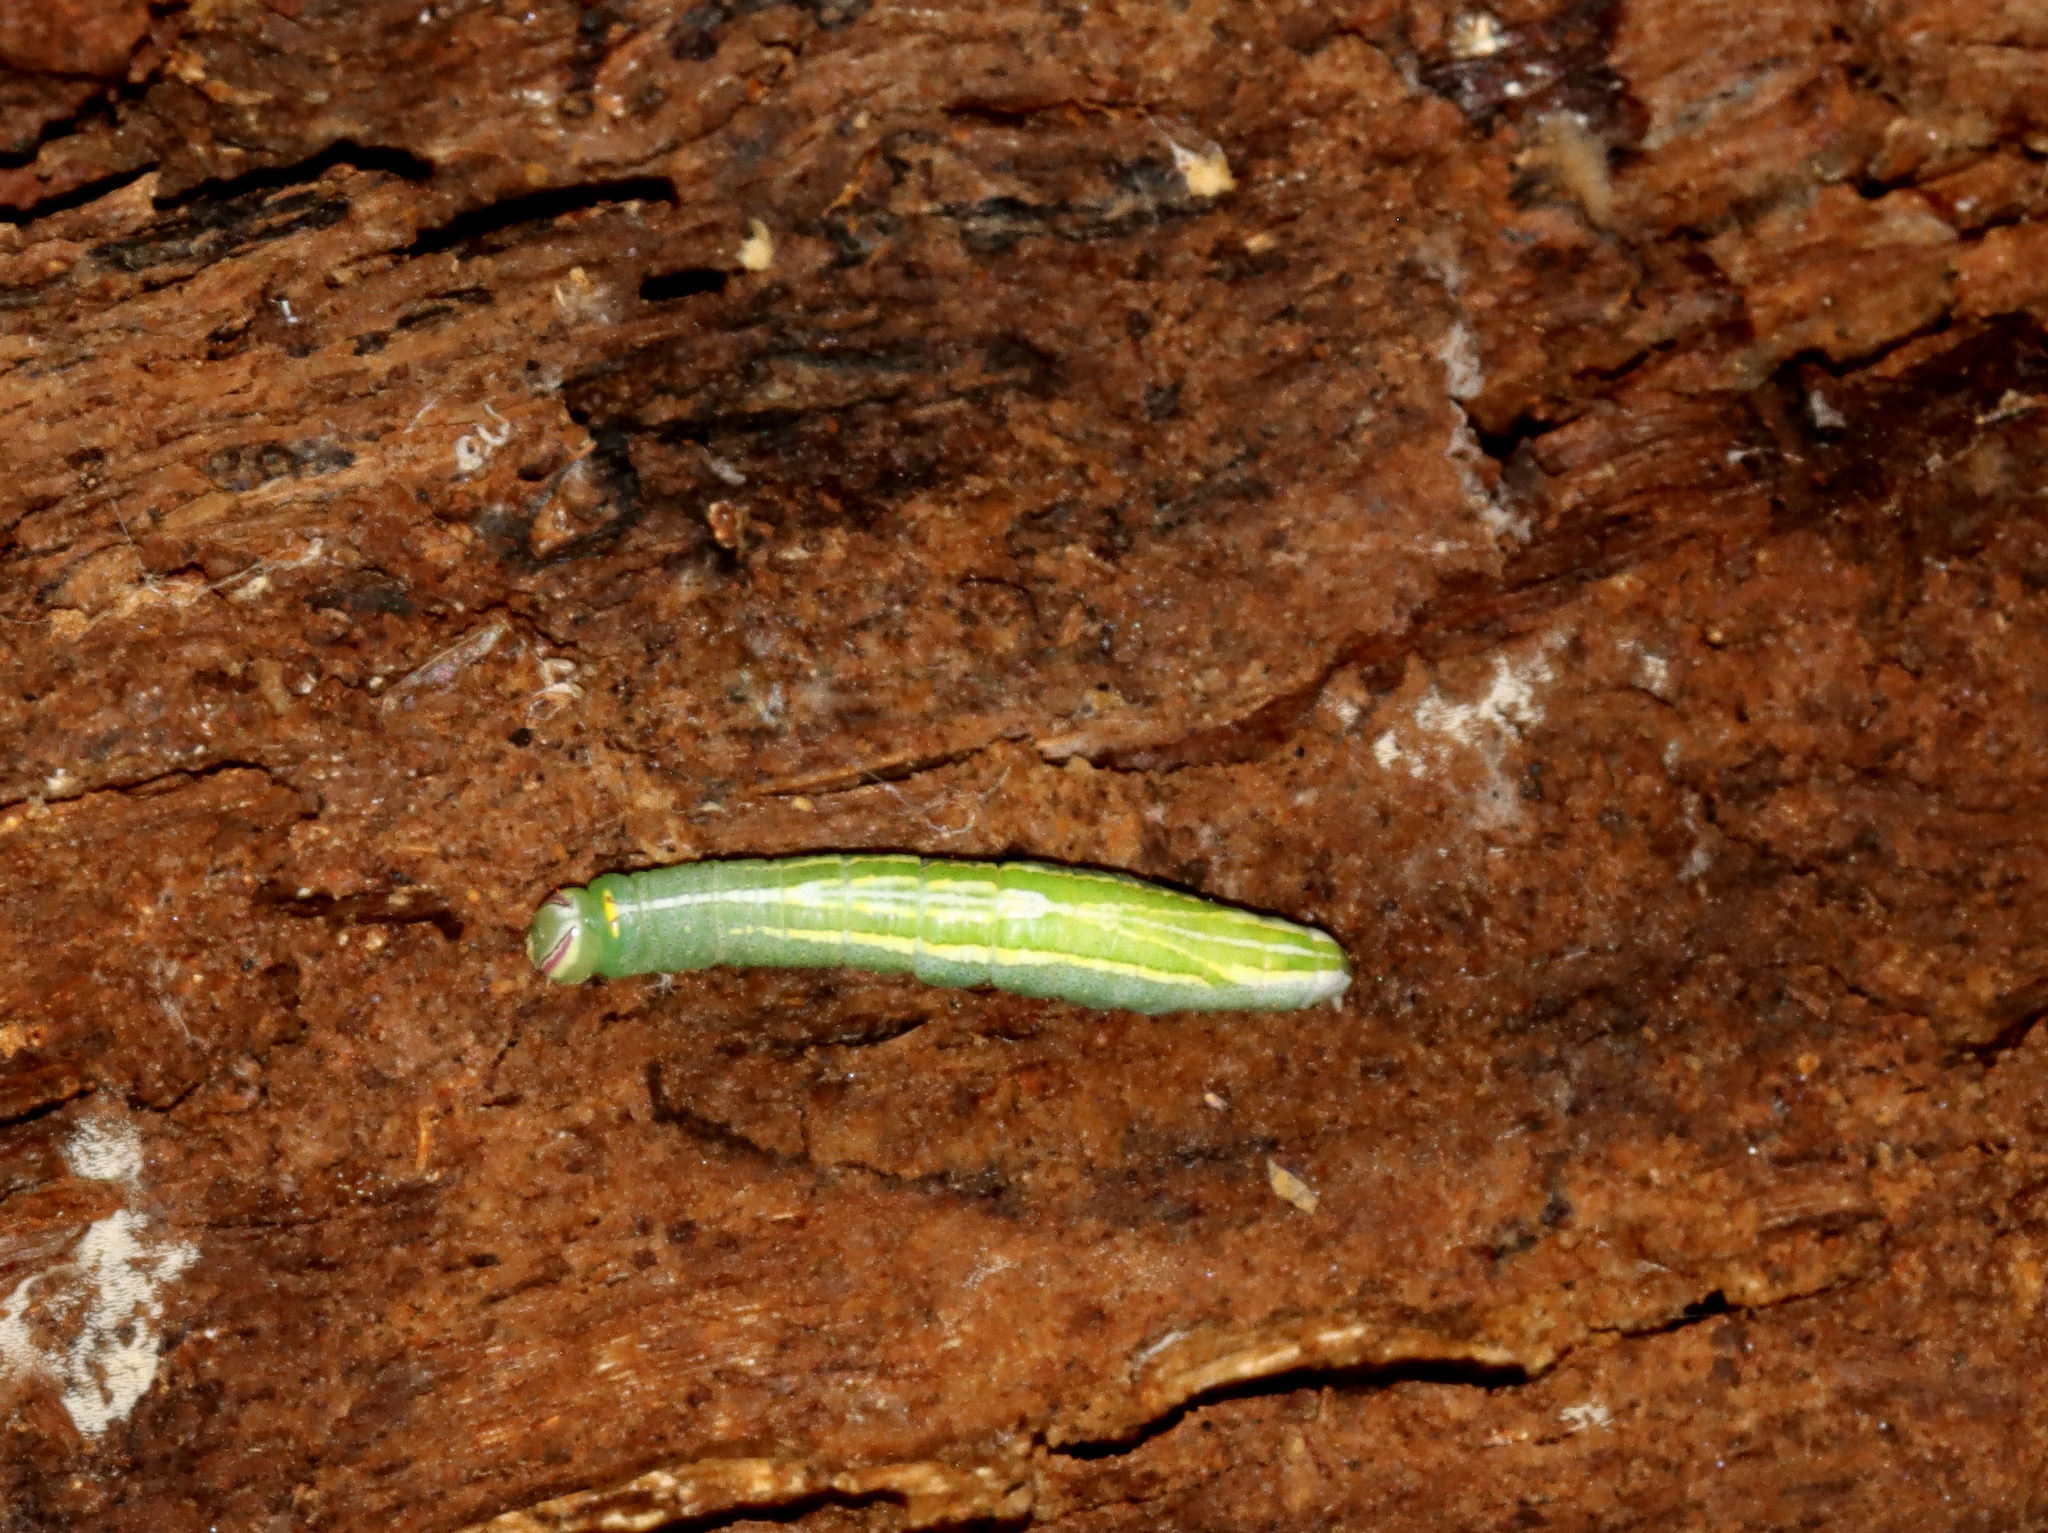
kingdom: Animalia
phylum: Arthropoda
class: Insecta
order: Lepidoptera
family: Notodontidae
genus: Disphragis
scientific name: Disphragis Cecrita guttivitta
